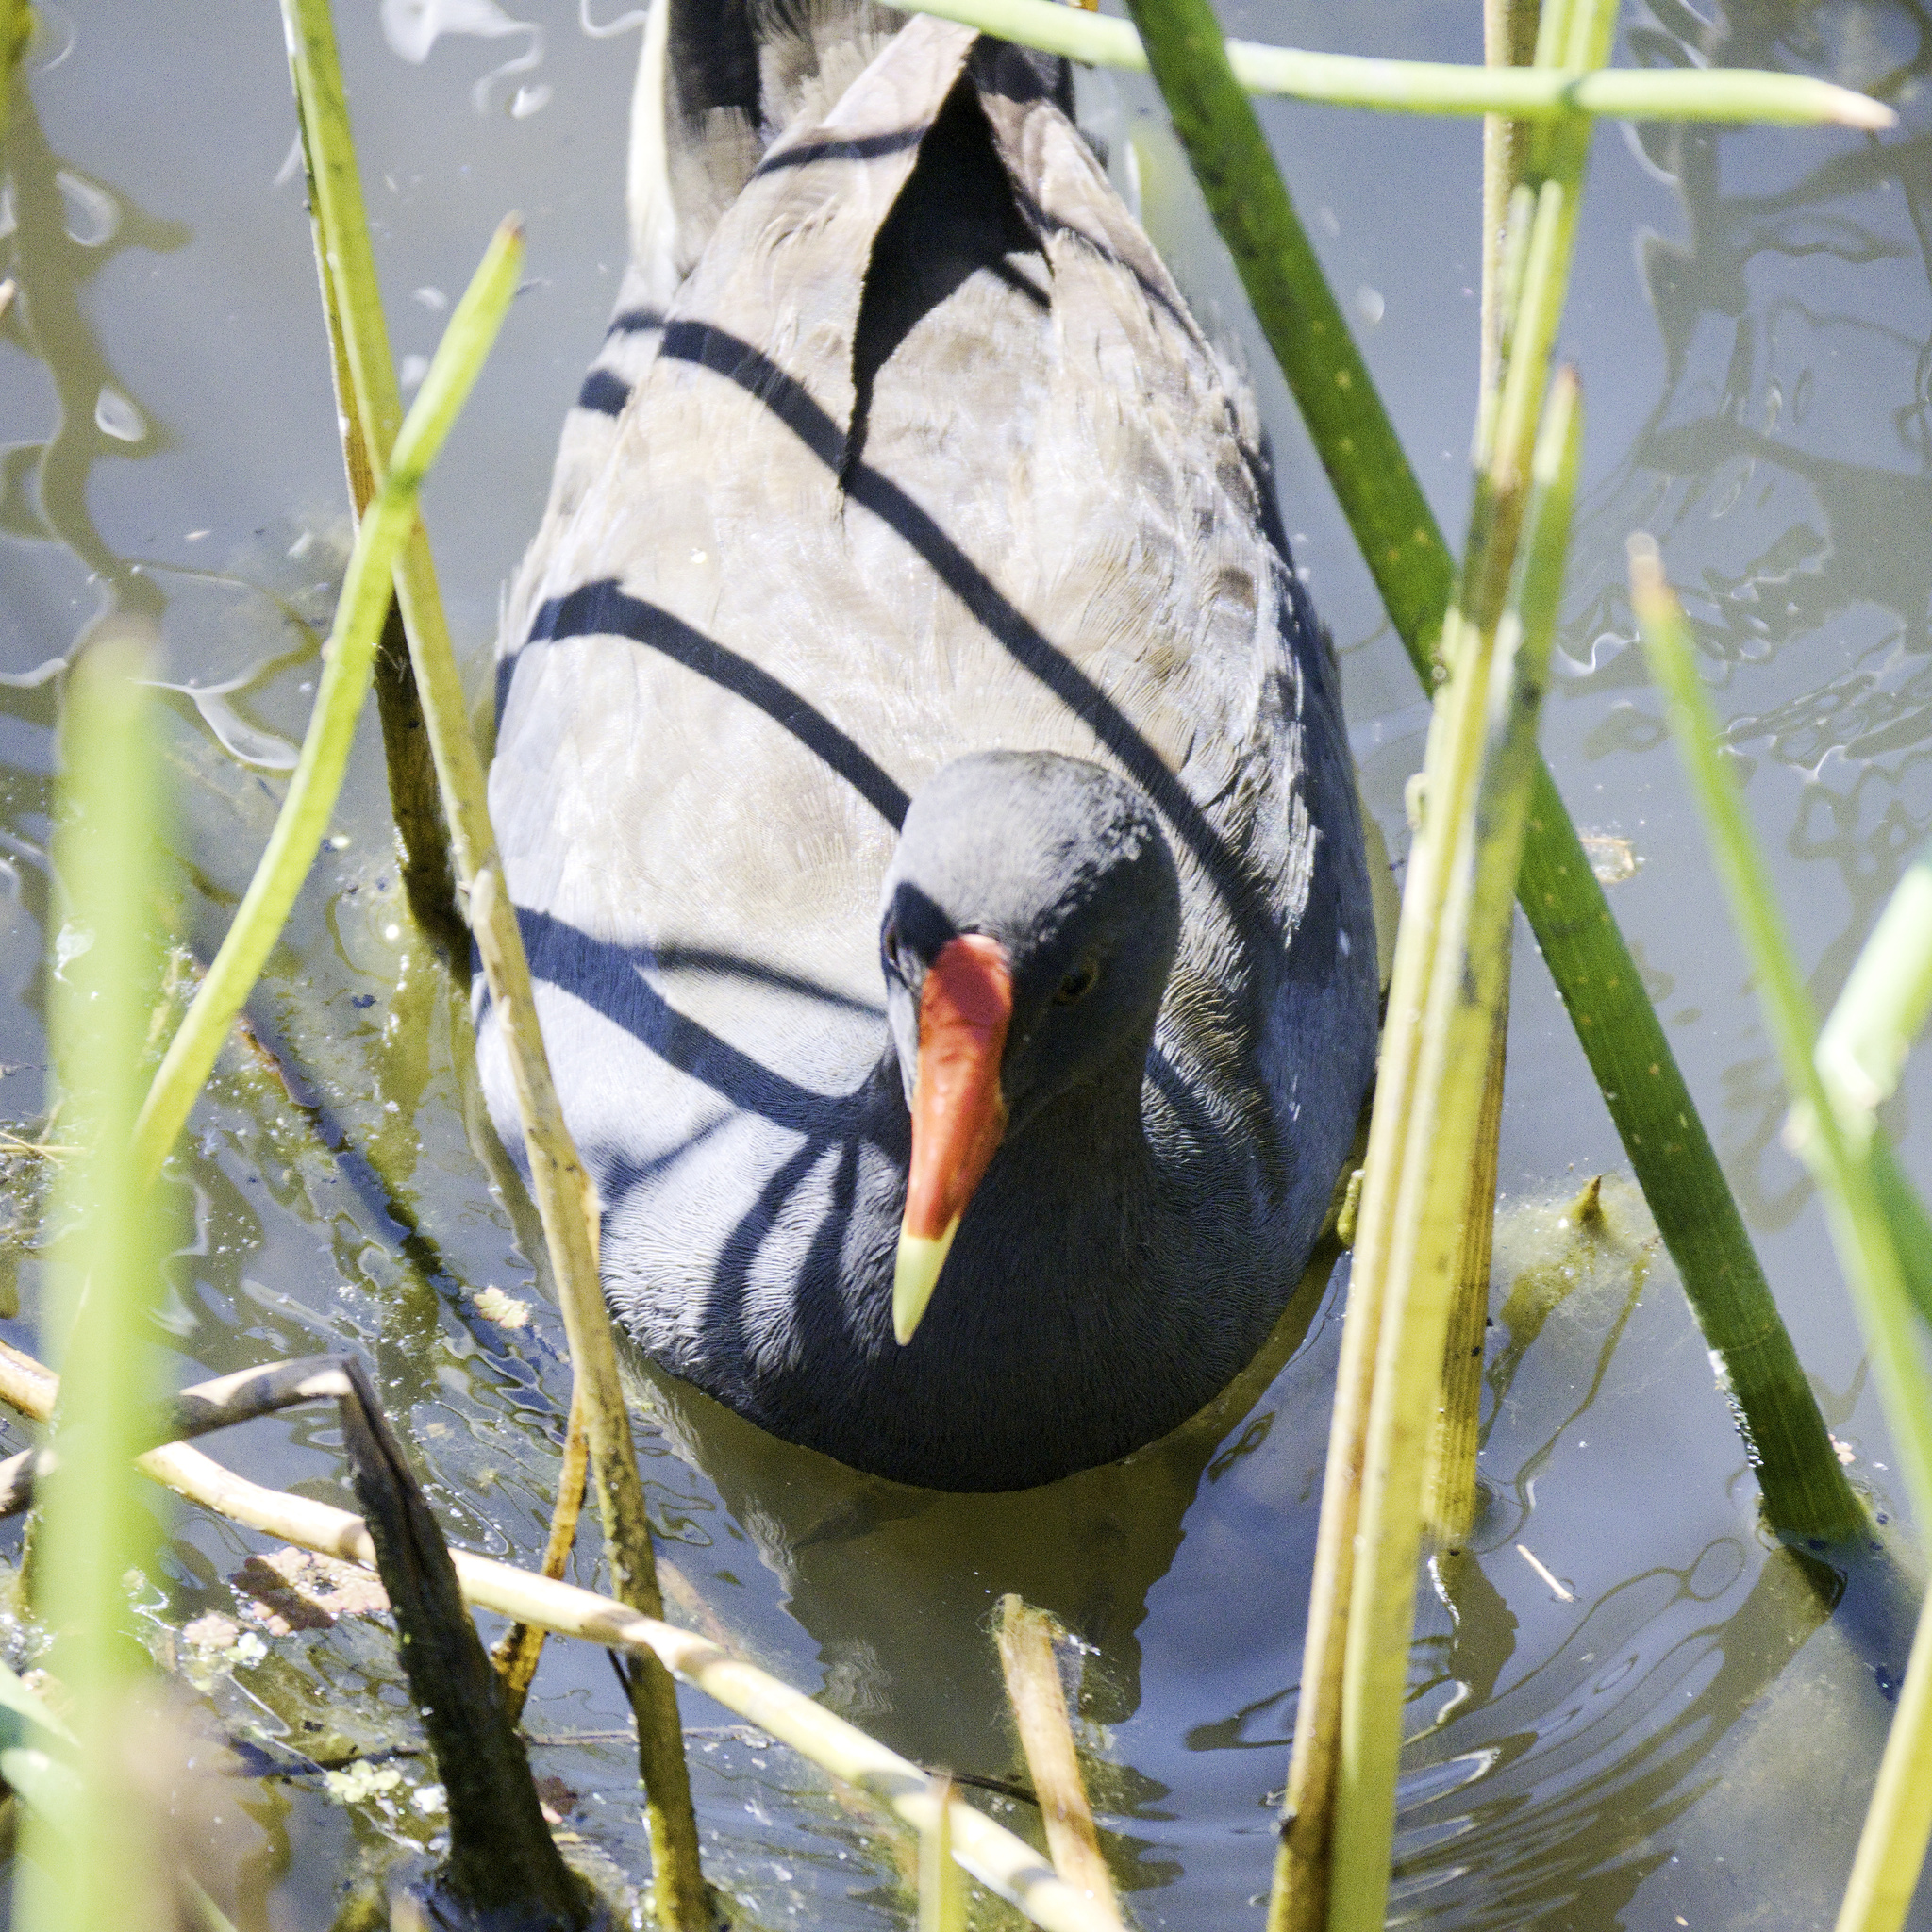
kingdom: Animalia
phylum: Chordata
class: Aves
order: Gruiformes
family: Rallidae
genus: Gallinula
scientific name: Gallinula tenebrosa
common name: Dusky moorhen
